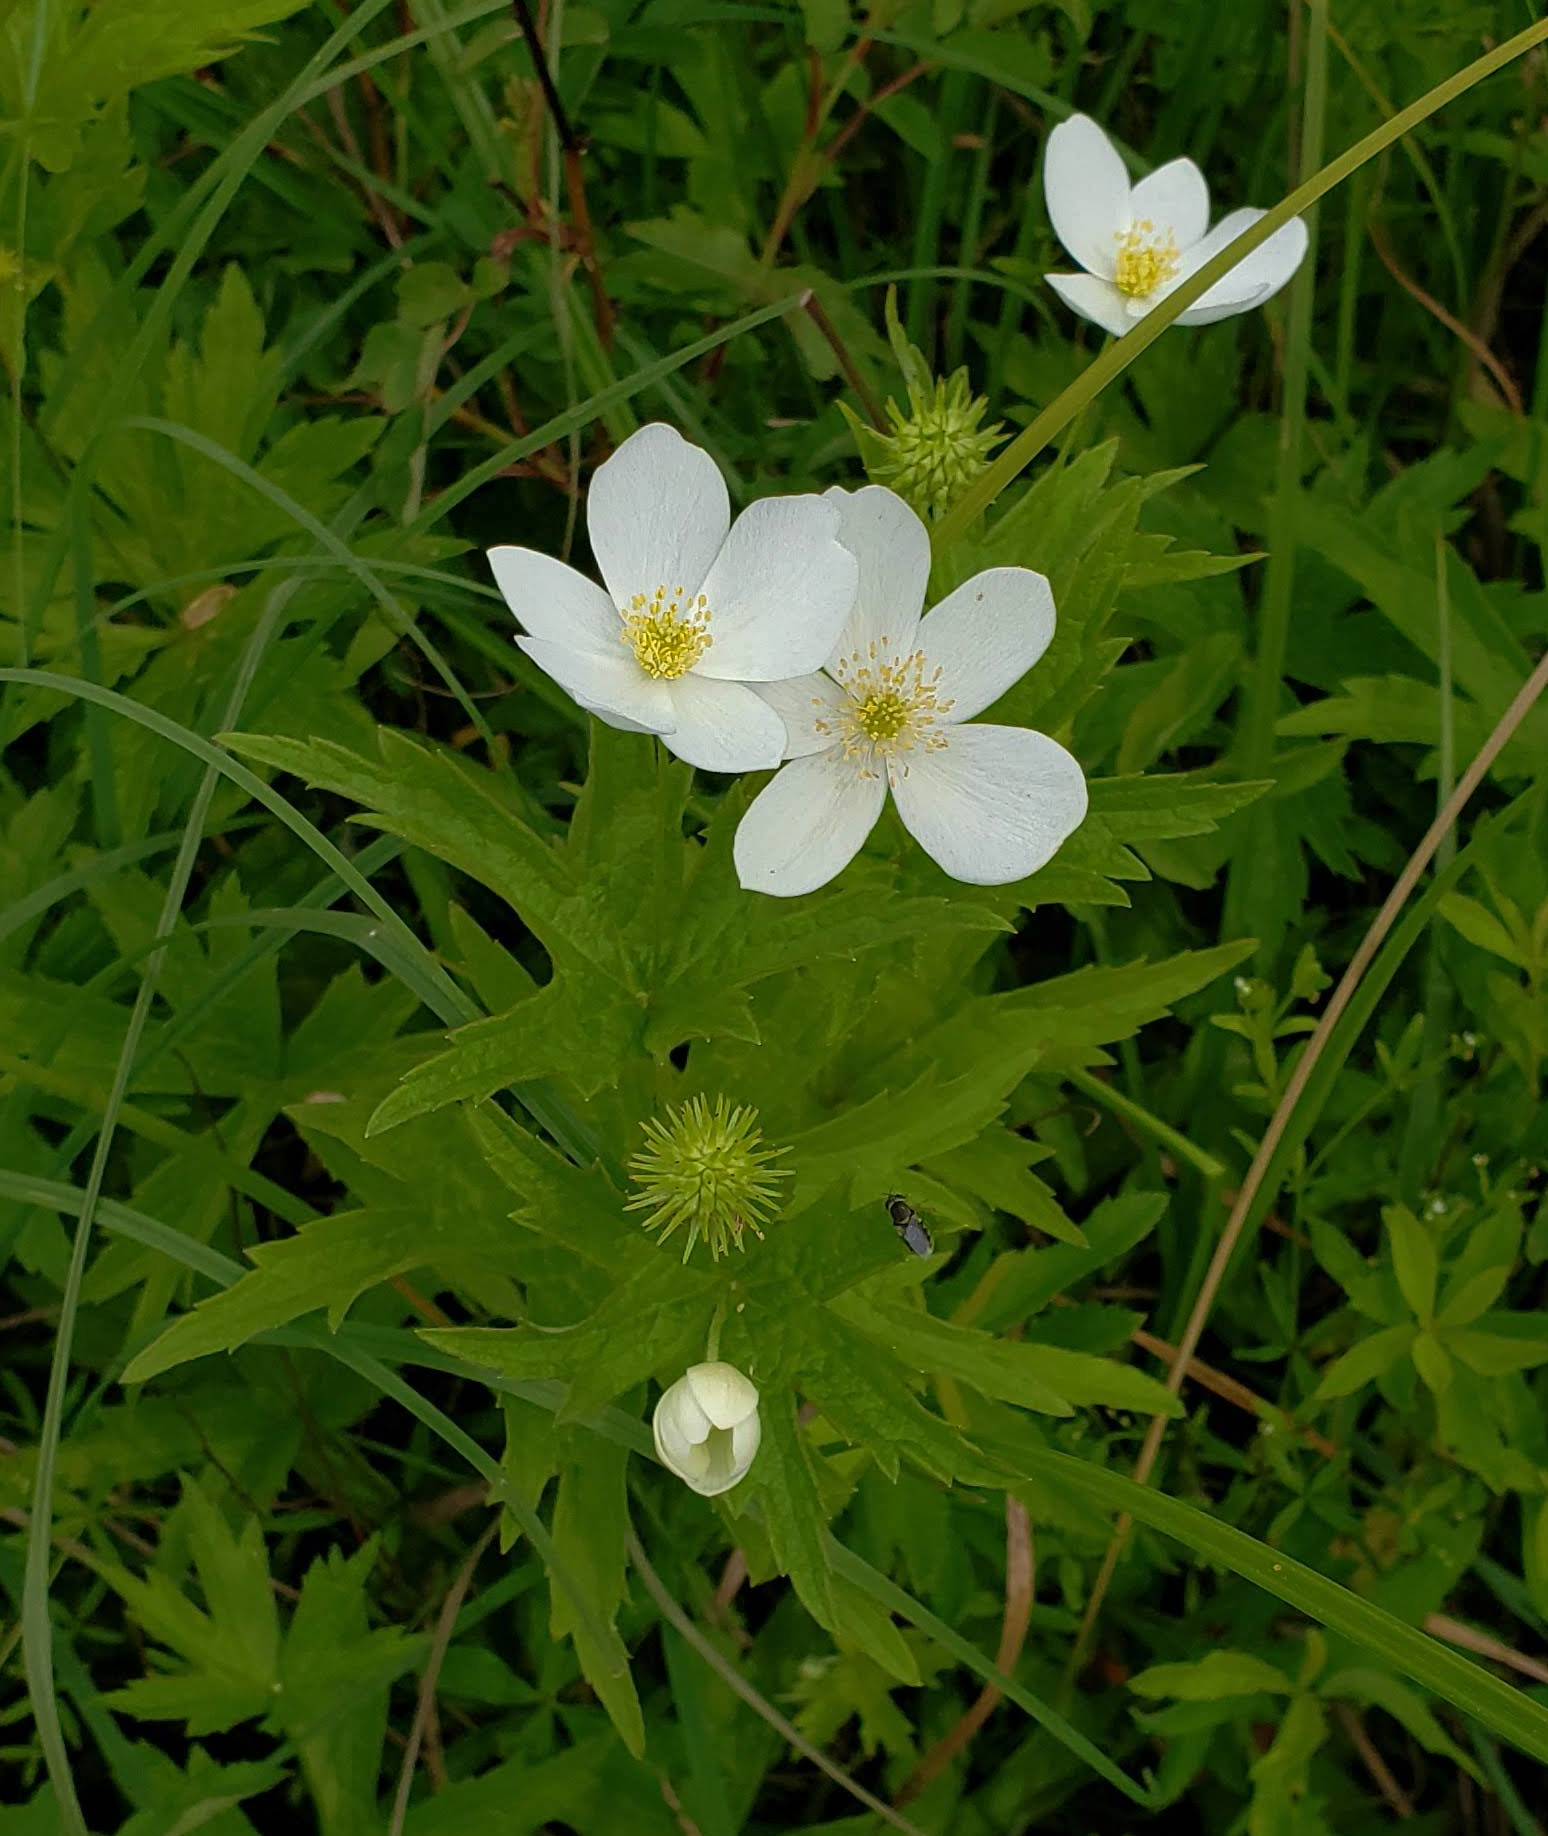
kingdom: Plantae
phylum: Tracheophyta
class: Magnoliopsida
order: Ranunculales
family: Ranunculaceae
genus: Anemonastrum
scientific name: Anemonastrum canadense
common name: Canada anemone
